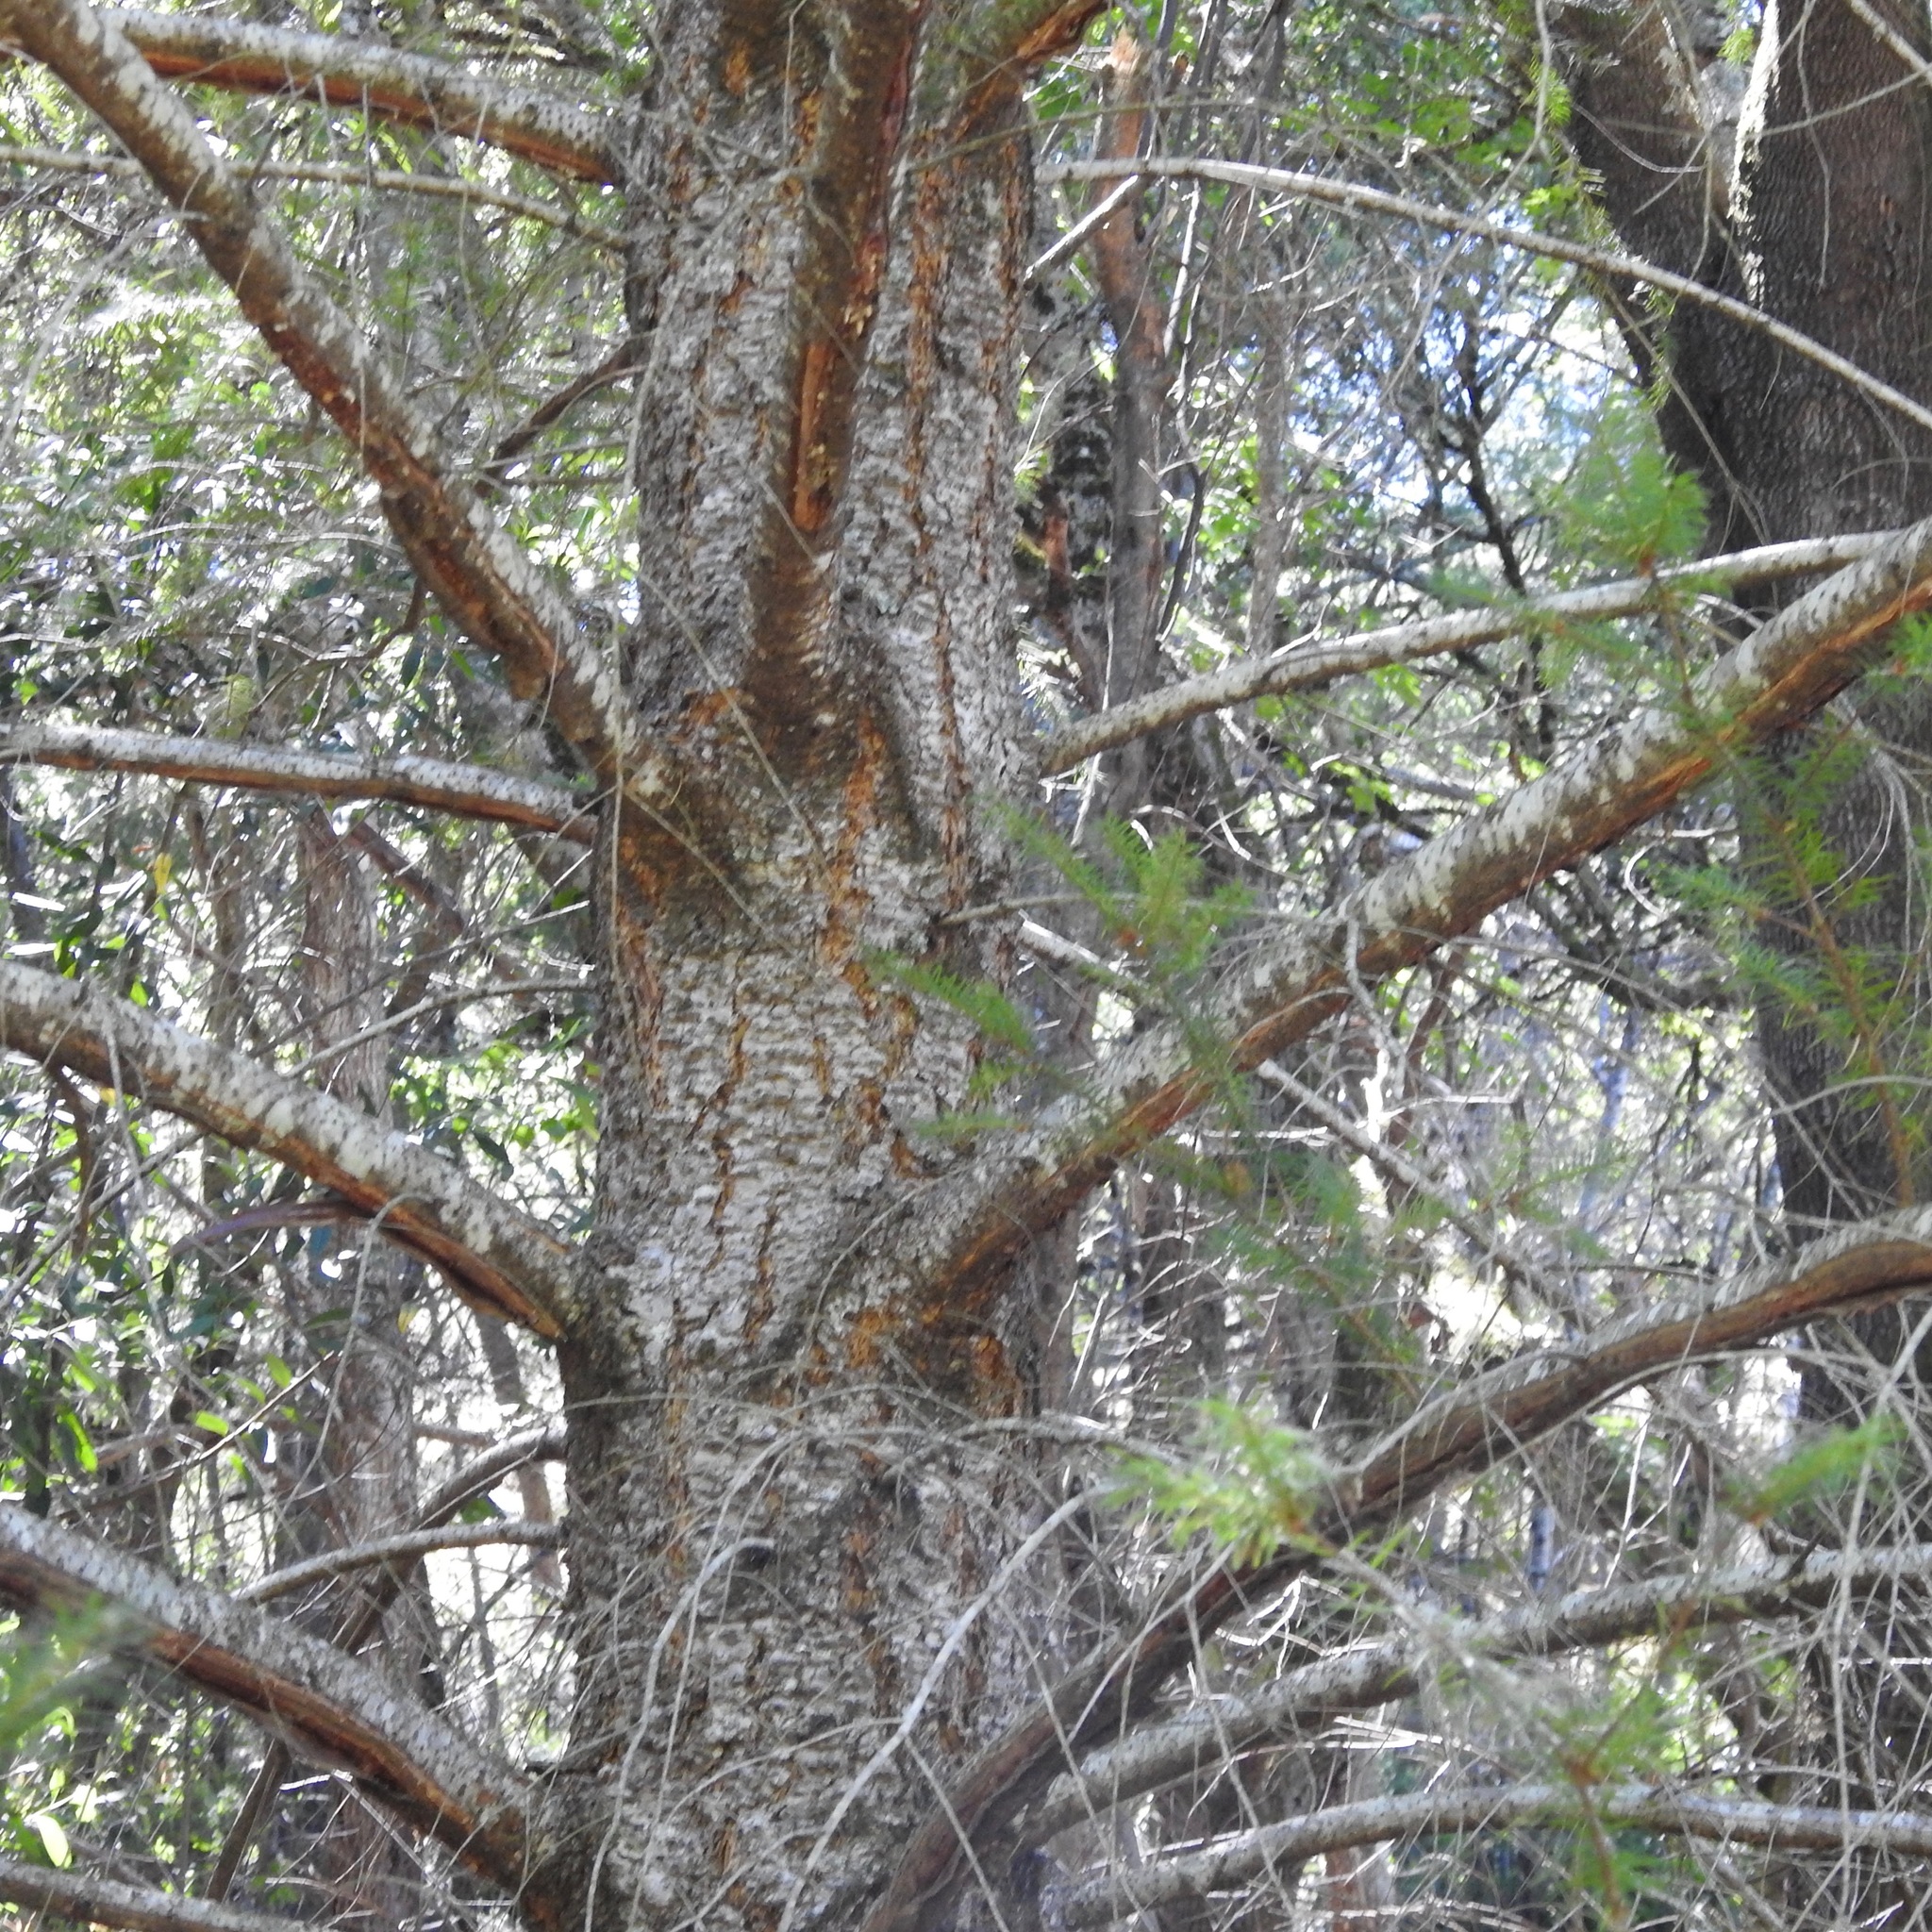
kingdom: Plantae
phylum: Tracheophyta
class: Pinopsida
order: Pinales
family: Pinaceae
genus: Pseudotsuga
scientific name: Pseudotsuga menziesii
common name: Douglas fir
